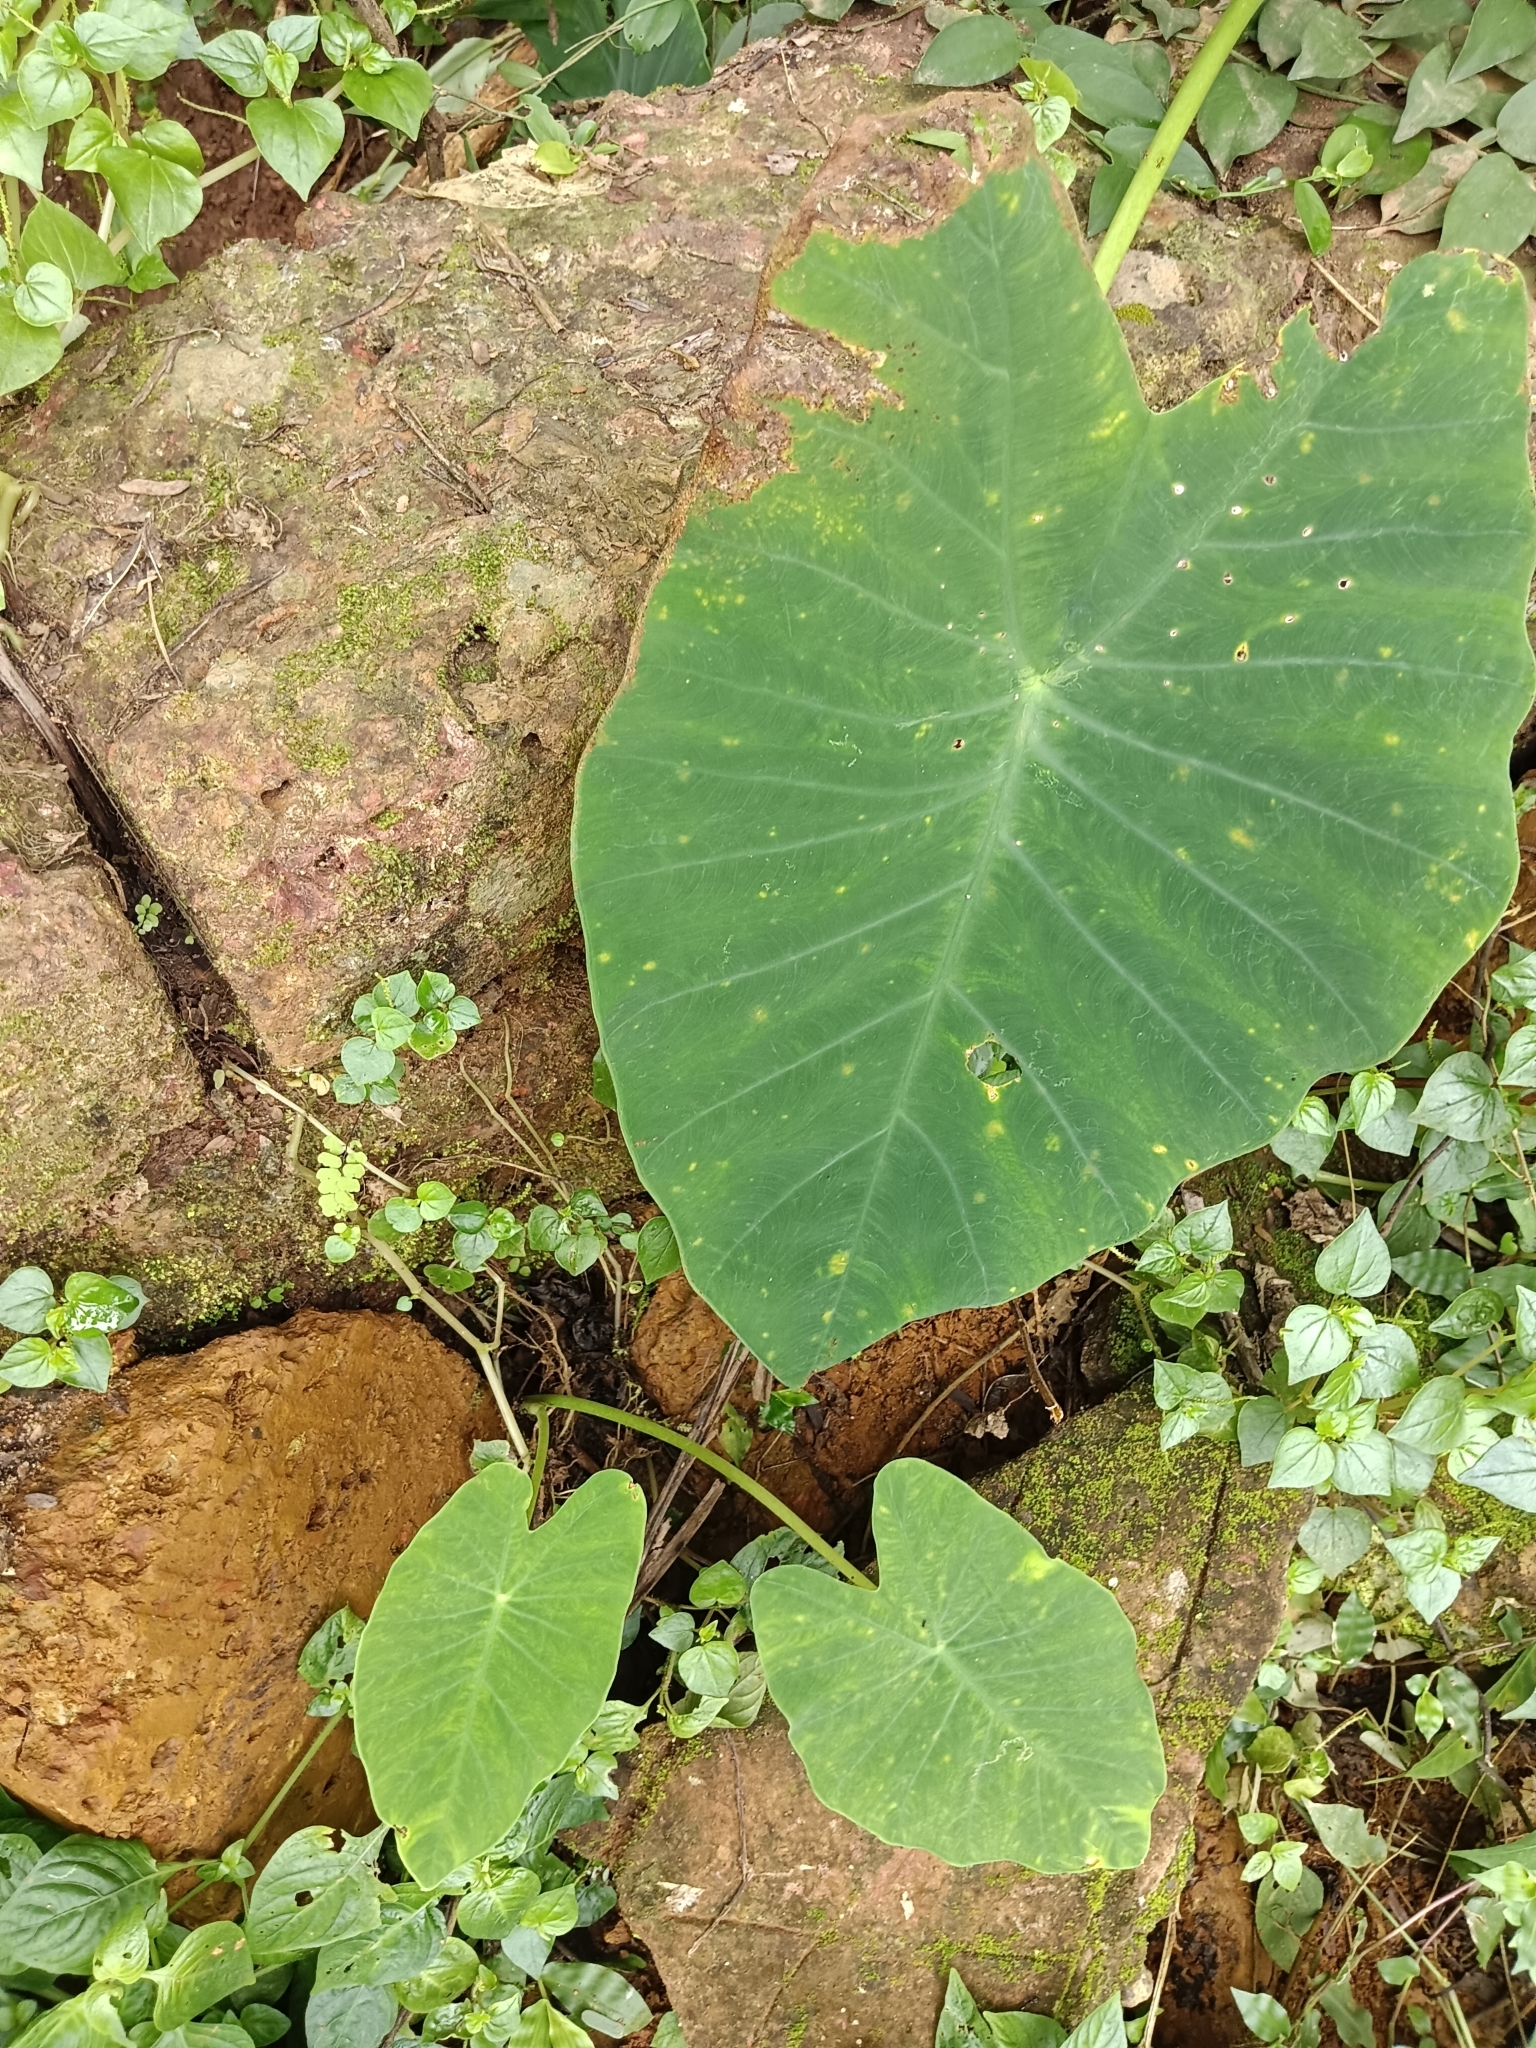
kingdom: Plantae
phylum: Tracheophyta
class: Liliopsida
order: Alismatales
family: Araceae
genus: Colocasia
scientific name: Colocasia esculenta
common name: Taro
